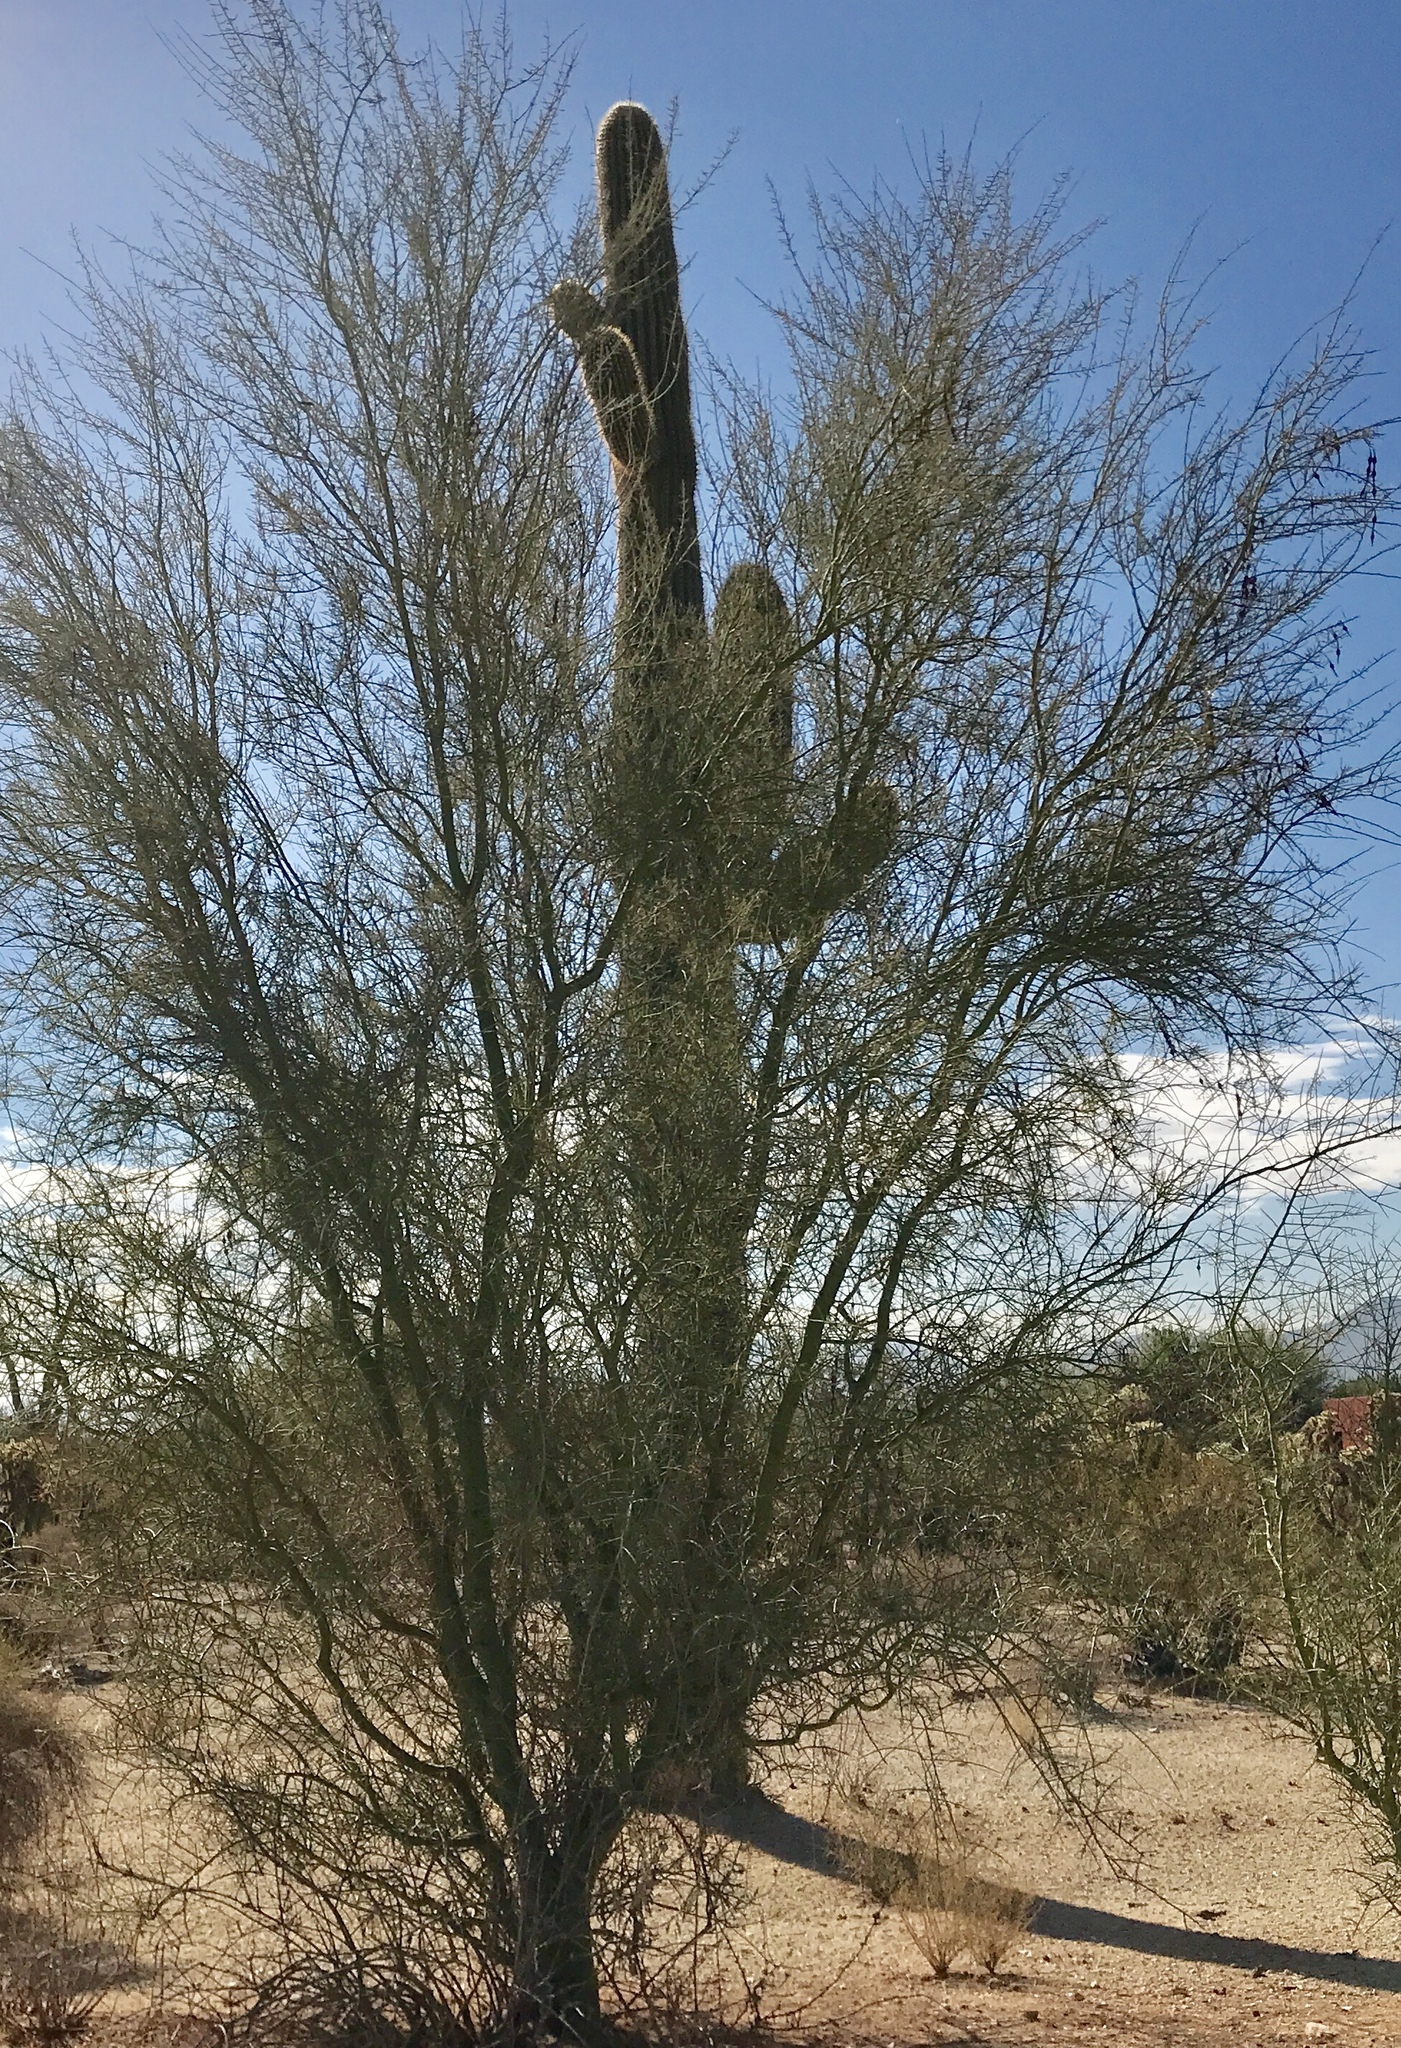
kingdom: Plantae
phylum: Tracheophyta
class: Magnoliopsida
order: Fabales
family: Fabaceae
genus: Parkinsonia
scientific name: Parkinsonia microphylla
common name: Yellow paloverde
